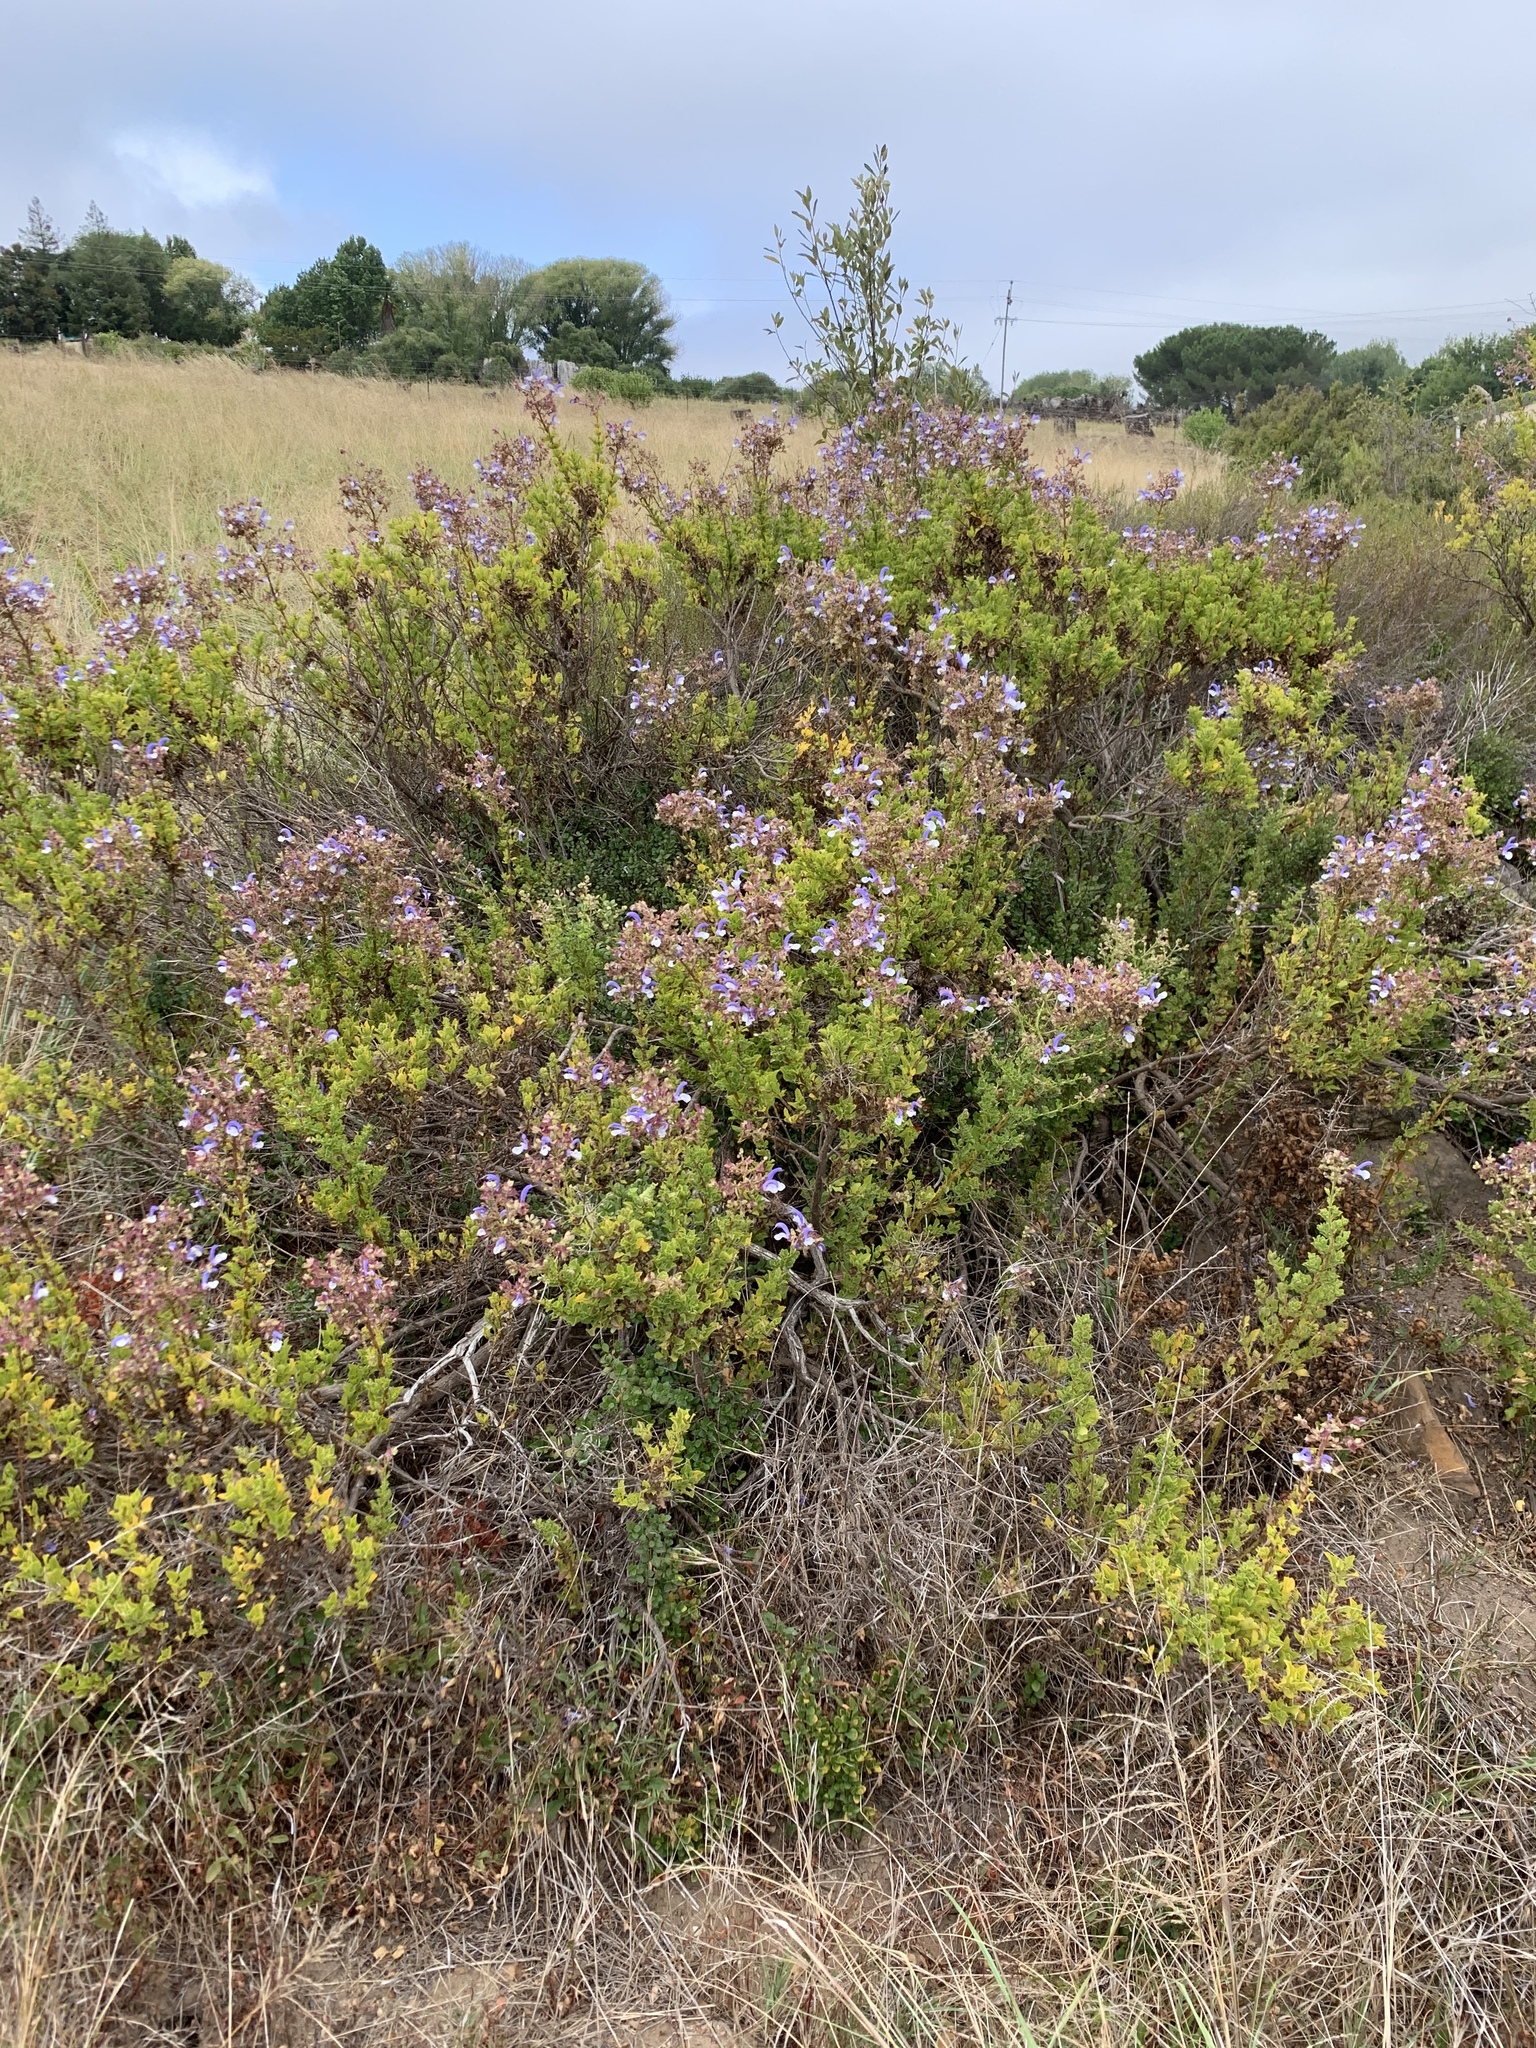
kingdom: Plantae
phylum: Tracheophyta
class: Magnoliopsida
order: Lamiales
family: Lamiaceae
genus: Salvia
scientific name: Salvia chamelaeagnea
